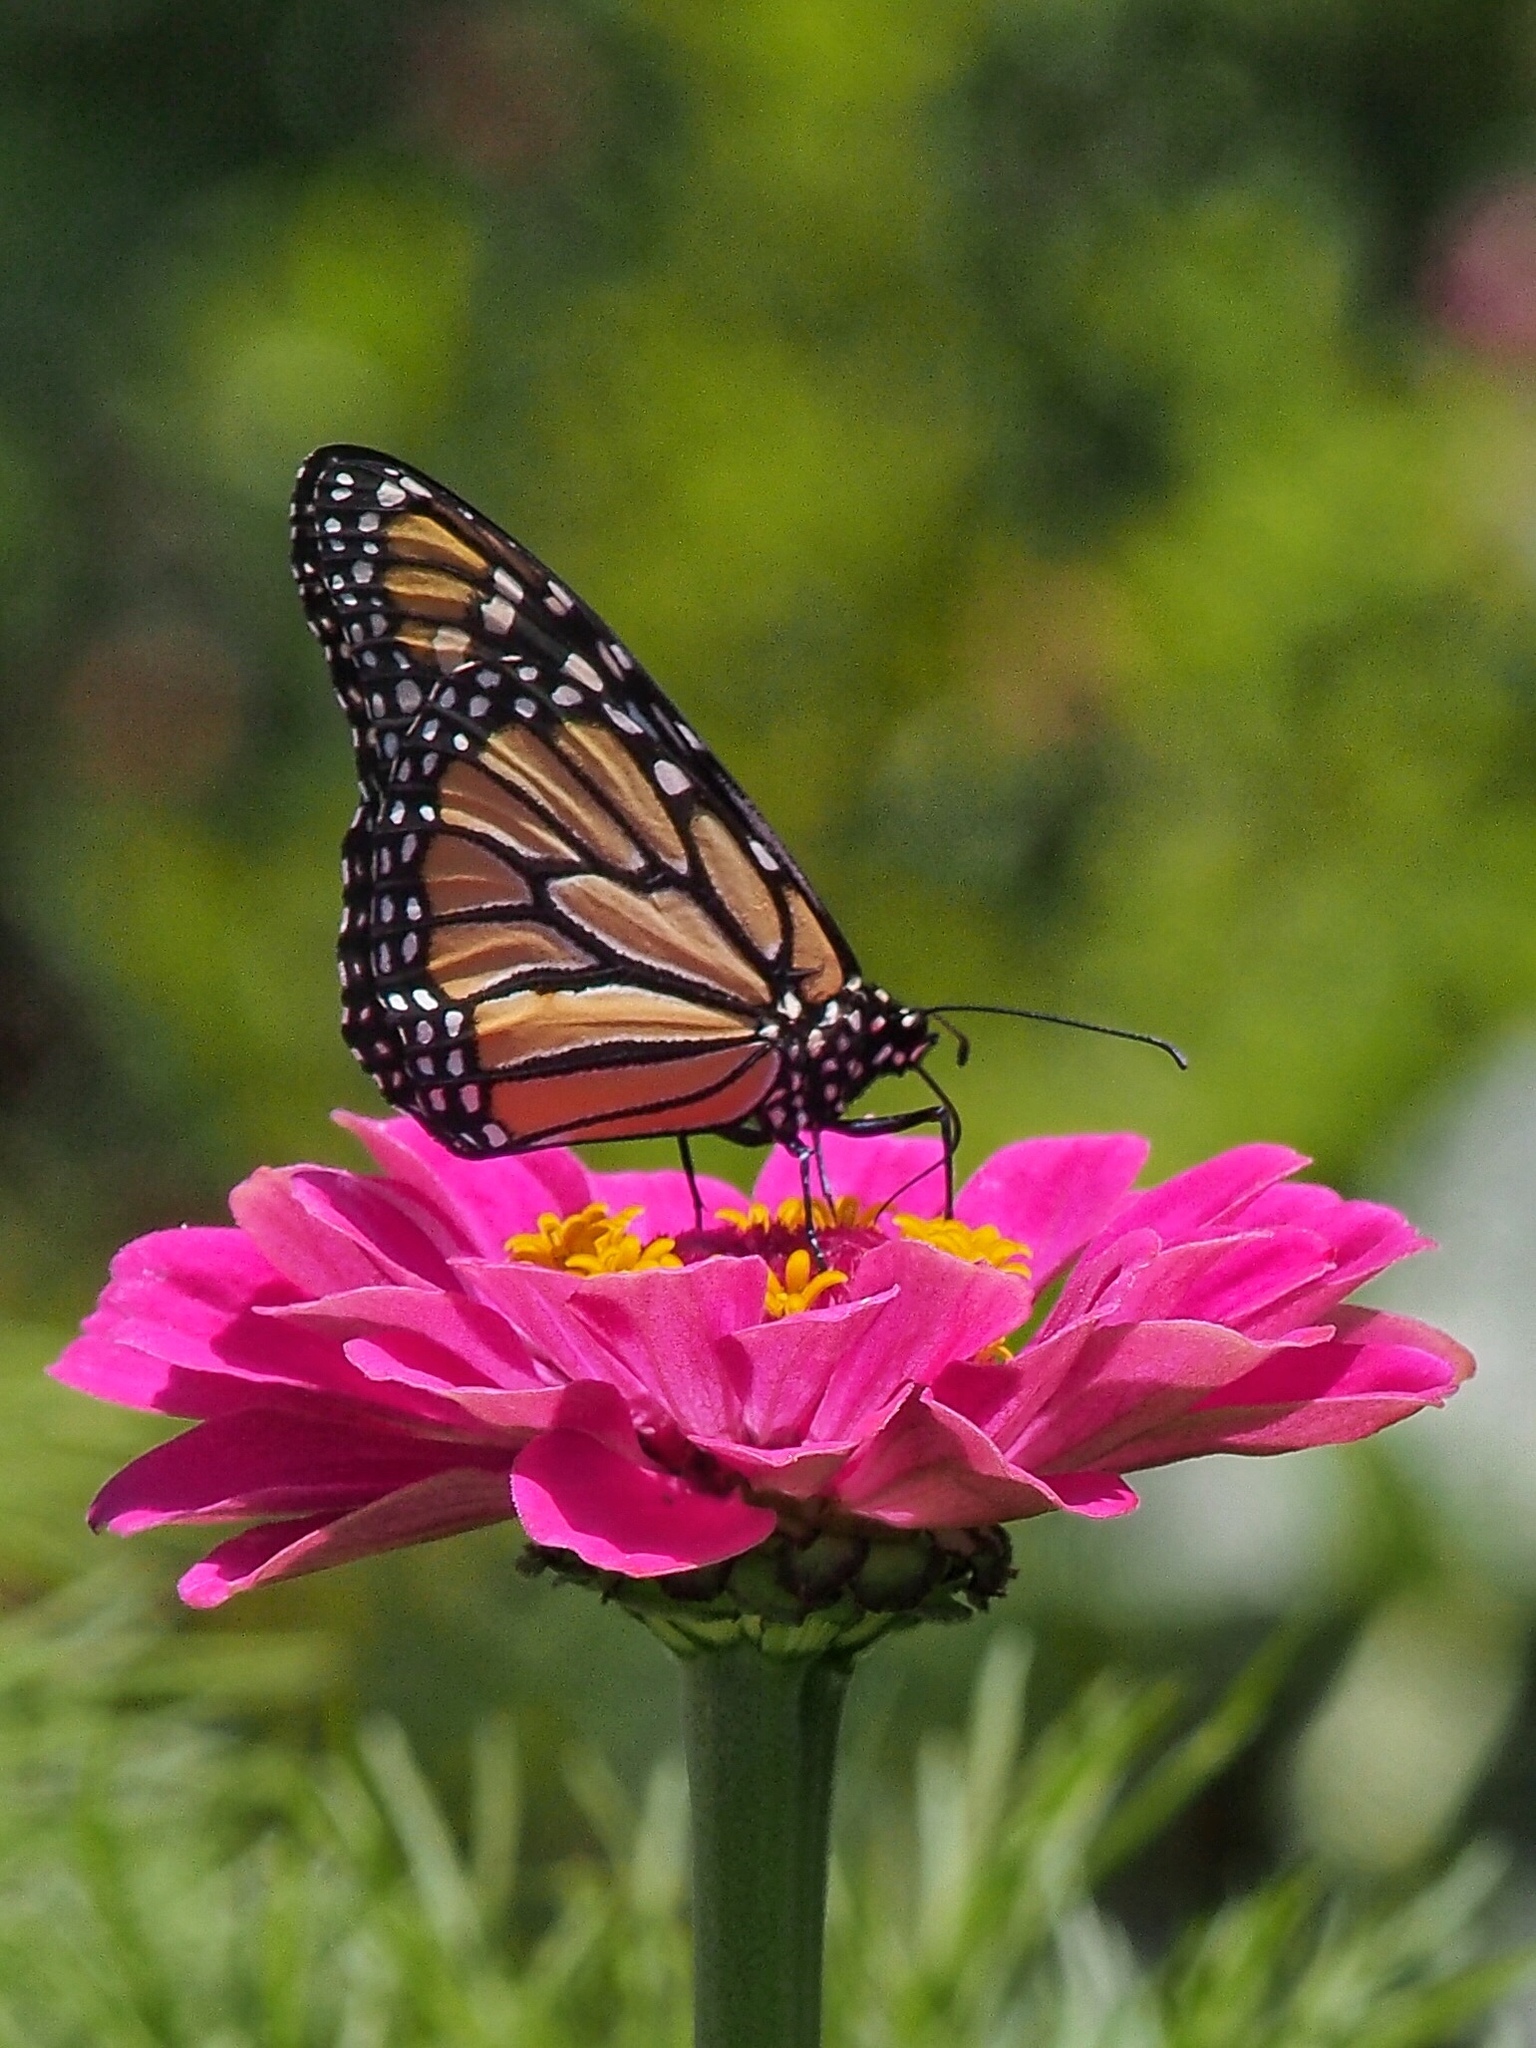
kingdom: Animalia
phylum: Arthropoda
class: Insecta
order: Lepidoptera
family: Nymphalidae
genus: Danaus
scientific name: Danaus plexippus
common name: Monarch
